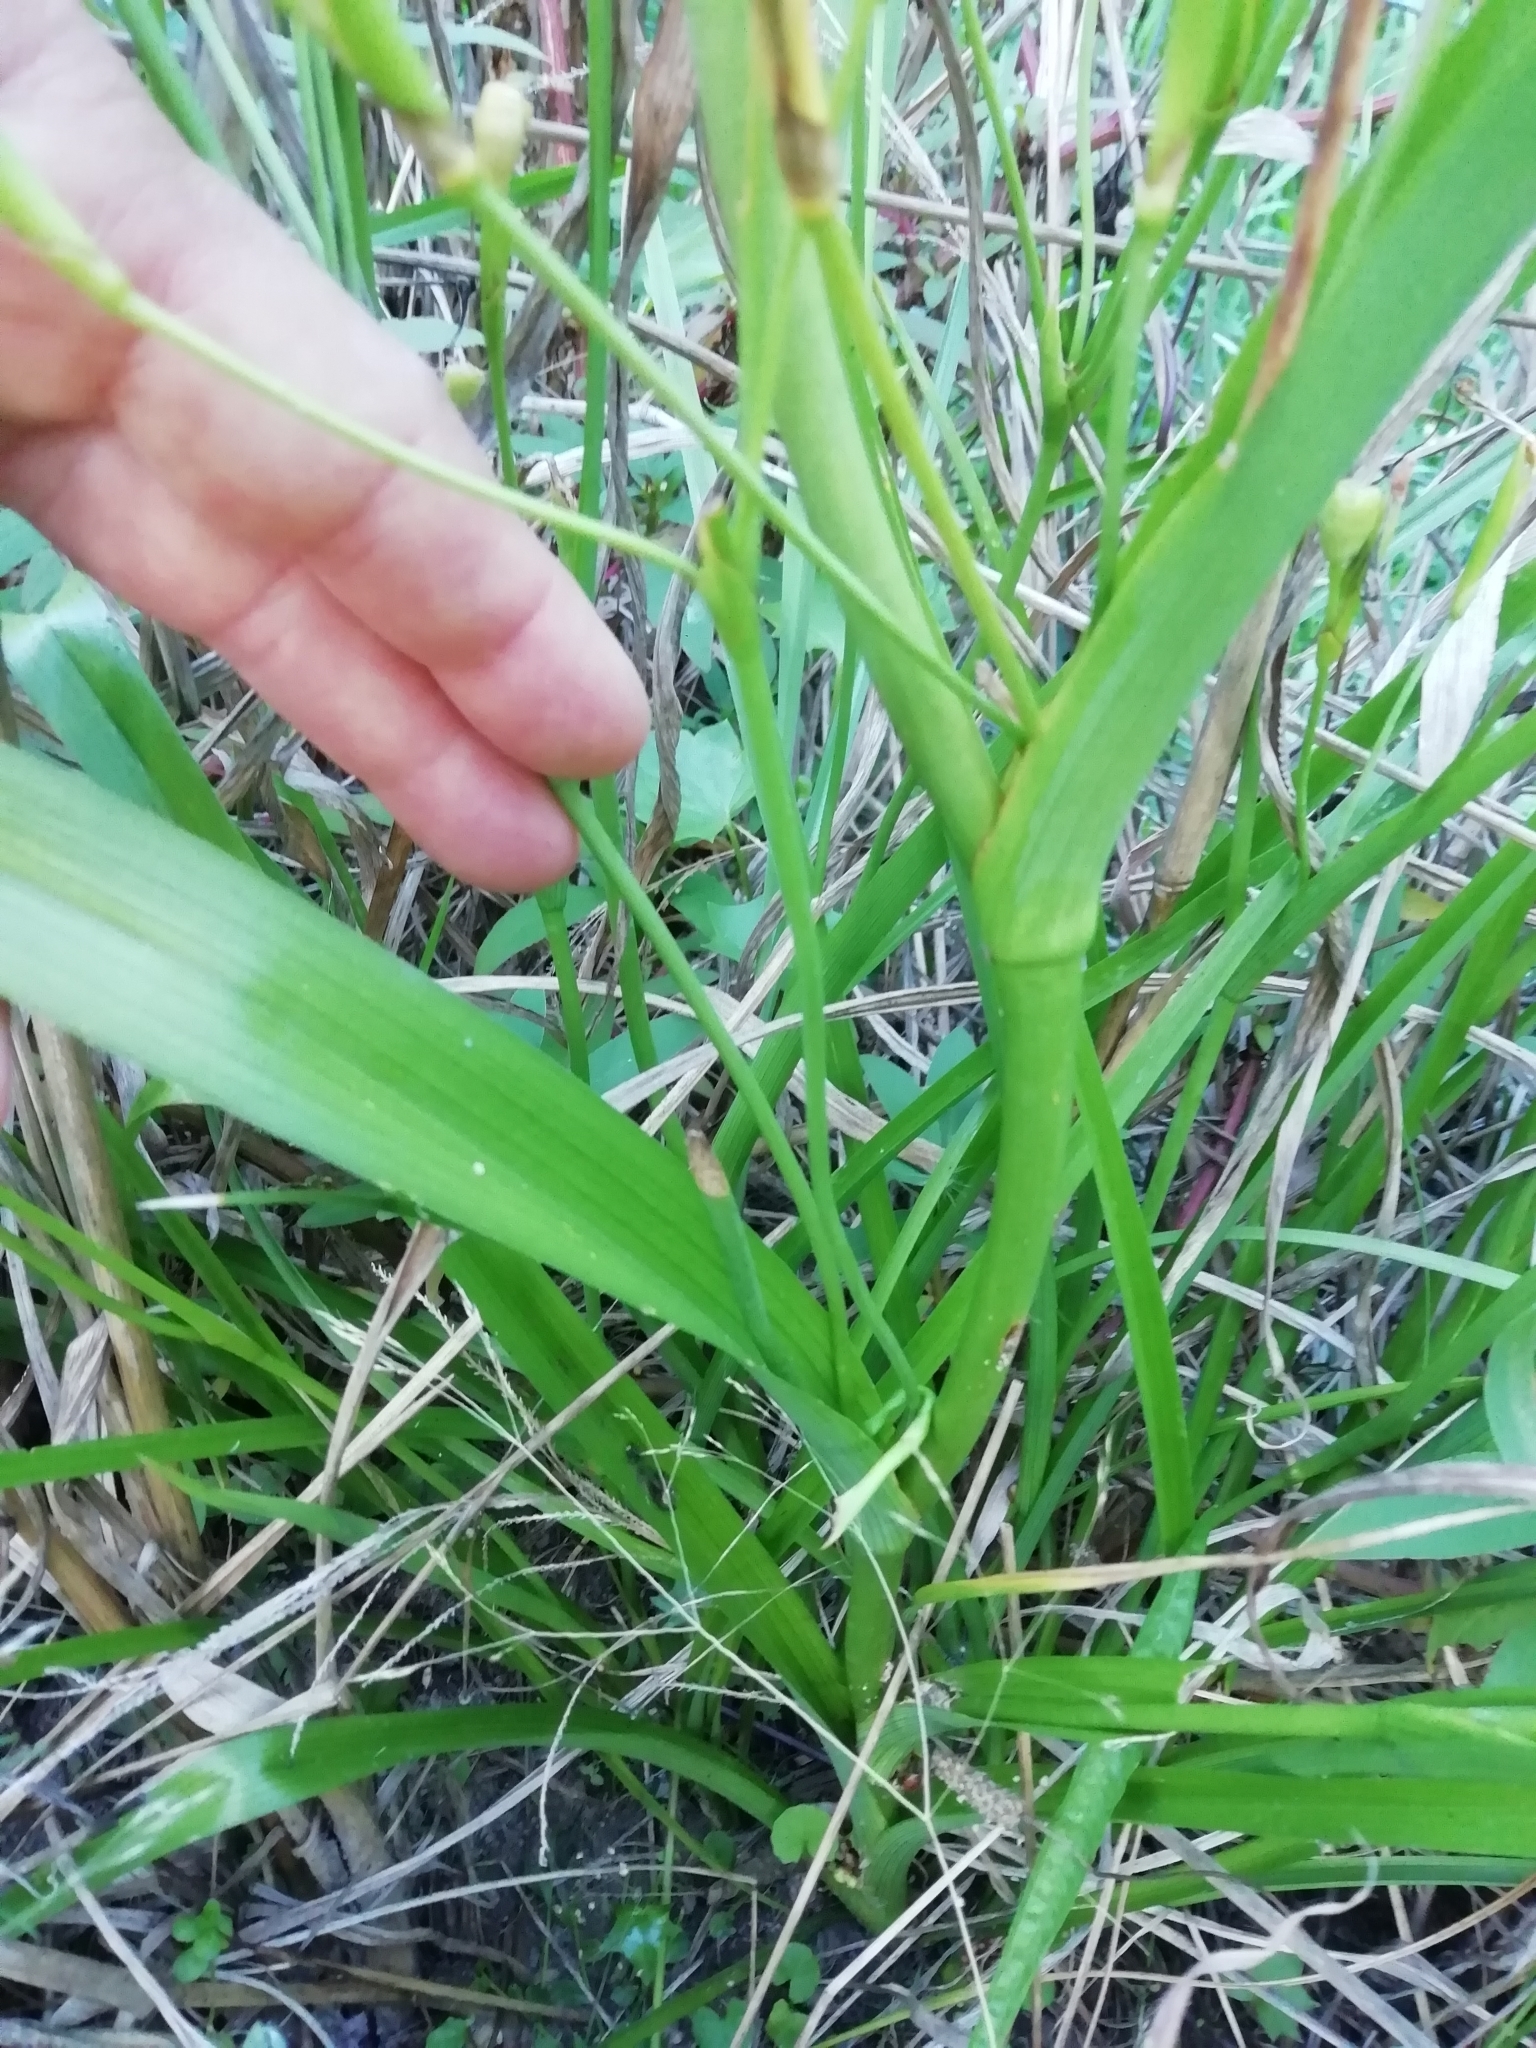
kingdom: Plantae
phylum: Tracheophyta
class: Liliopsida
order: Asparagales
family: Iridaceae
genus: Moraea
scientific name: Moraea ramosissima
